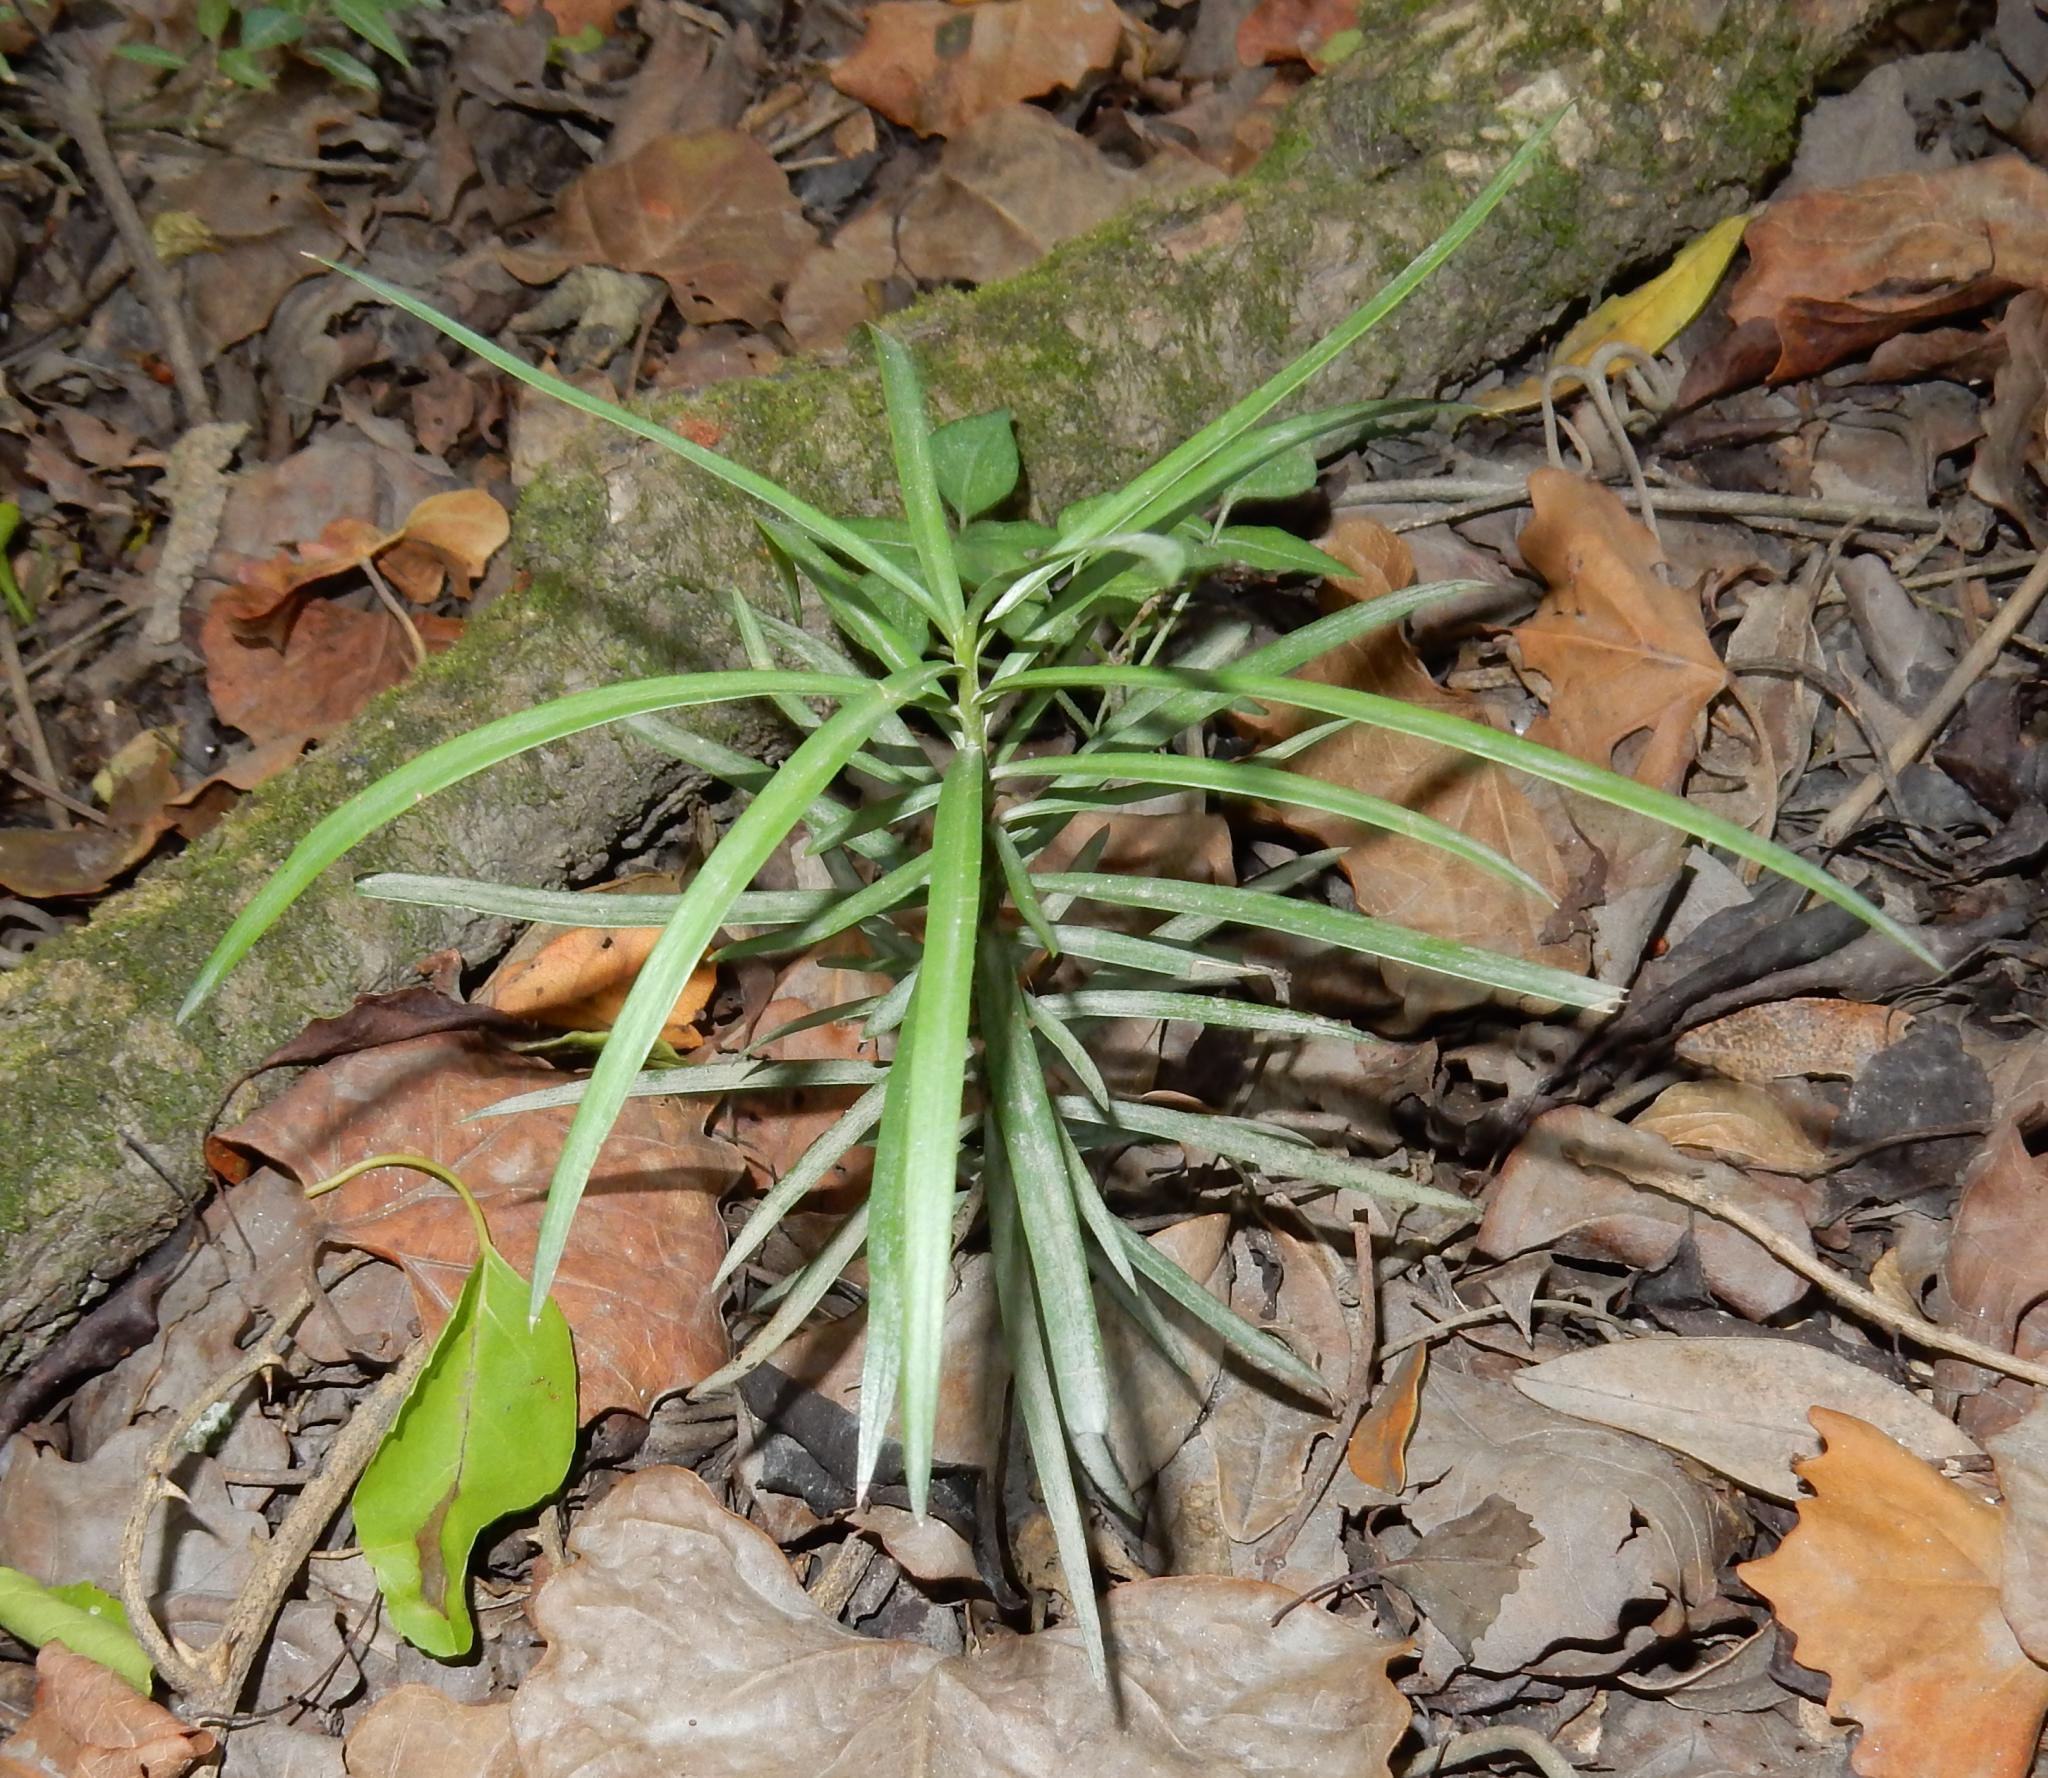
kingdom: Plantae
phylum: Tracheophyta
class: Pinopsida
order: Pinales
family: Podocarpaceae
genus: Afrocarpus
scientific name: Afrocarpus falcatus
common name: Bastard yellowwood
